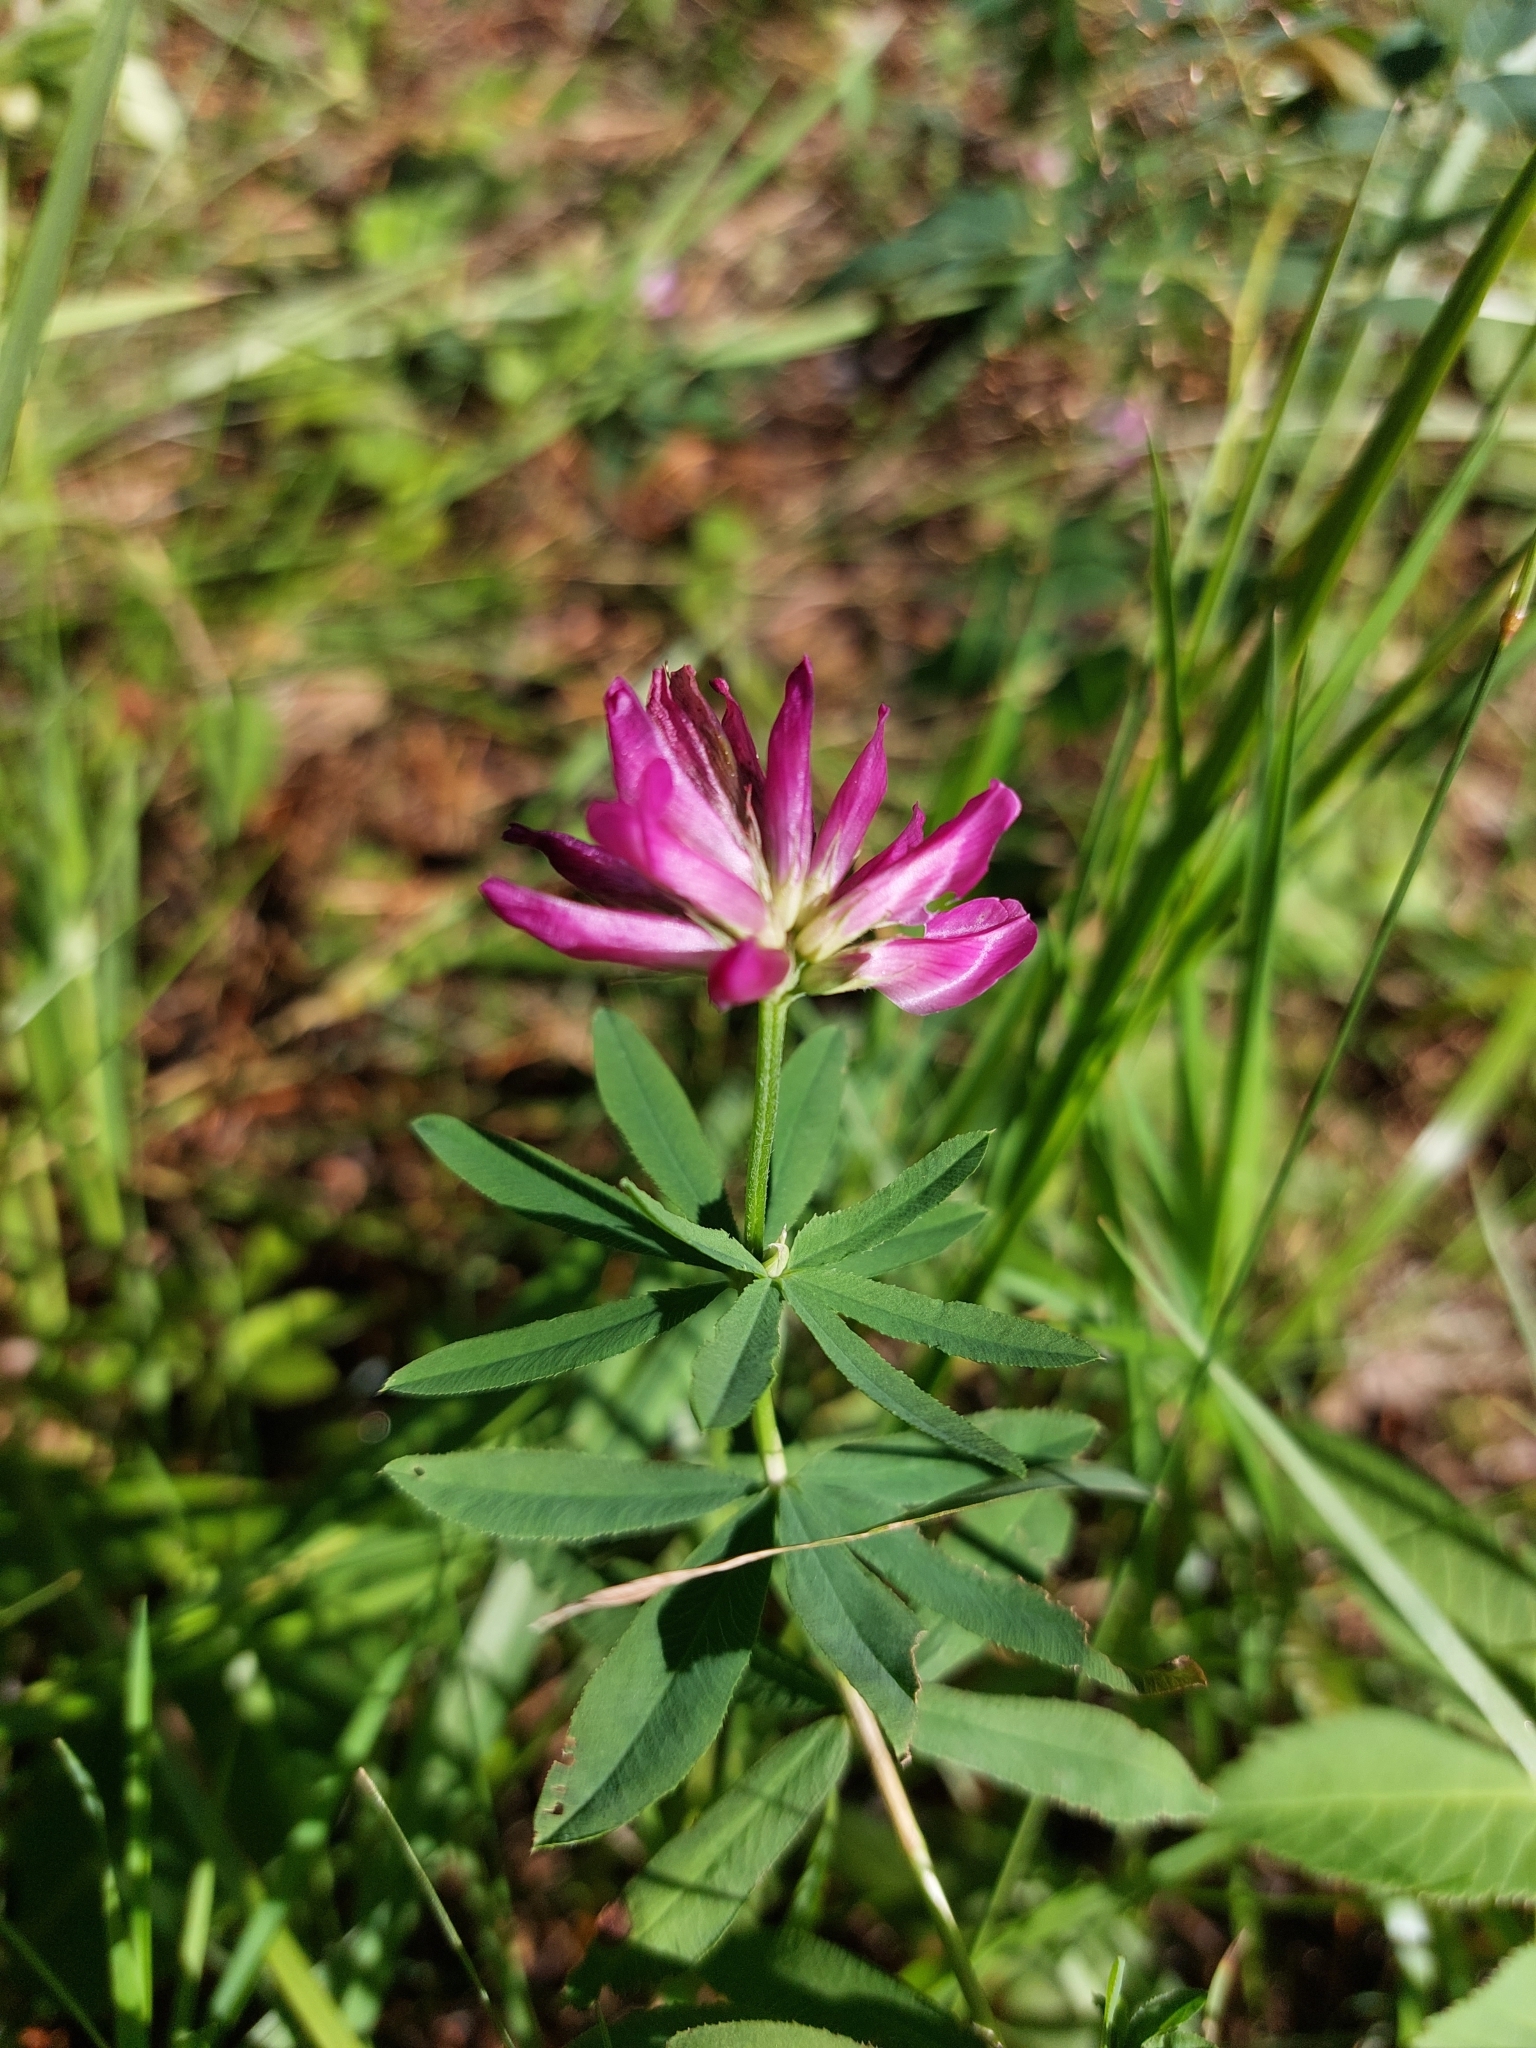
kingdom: Plantae
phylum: Tracheophyta
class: Magnoliopsida
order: Fabales
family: Fabaceae
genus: Trifolium
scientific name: Trifolium lupinaster
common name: Lupine clover
